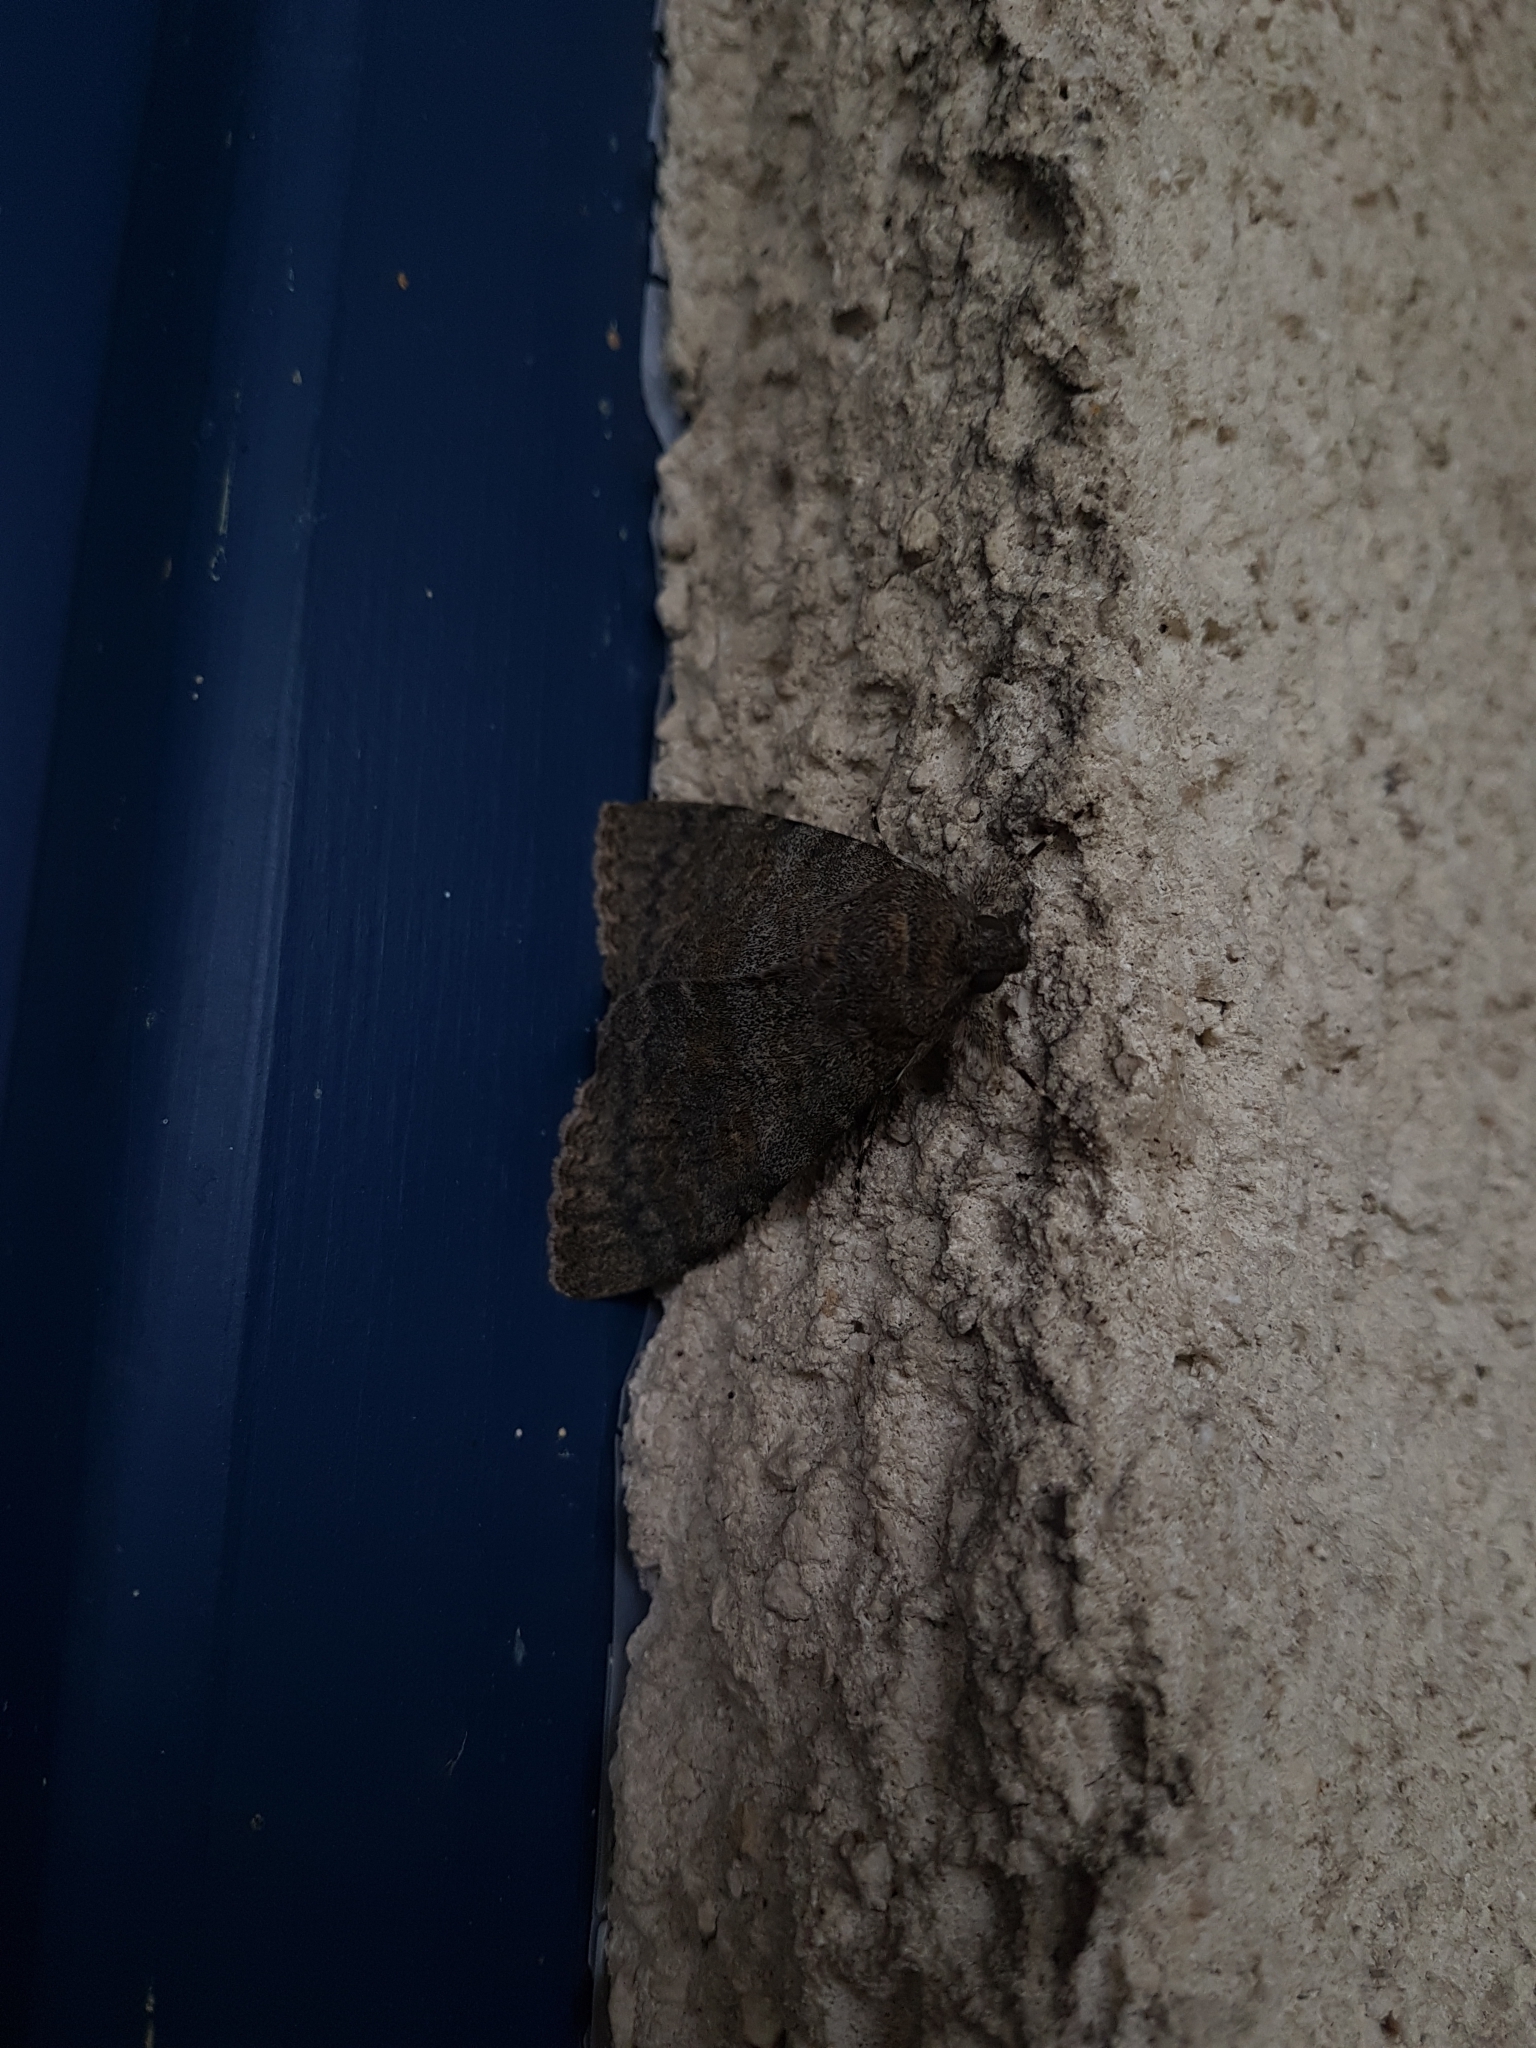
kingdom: Animalia
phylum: Arthropoda
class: Insecta
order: Lepidoptera
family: Erebidae
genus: Catocala
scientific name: Catocala elocata
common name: French red underwing
